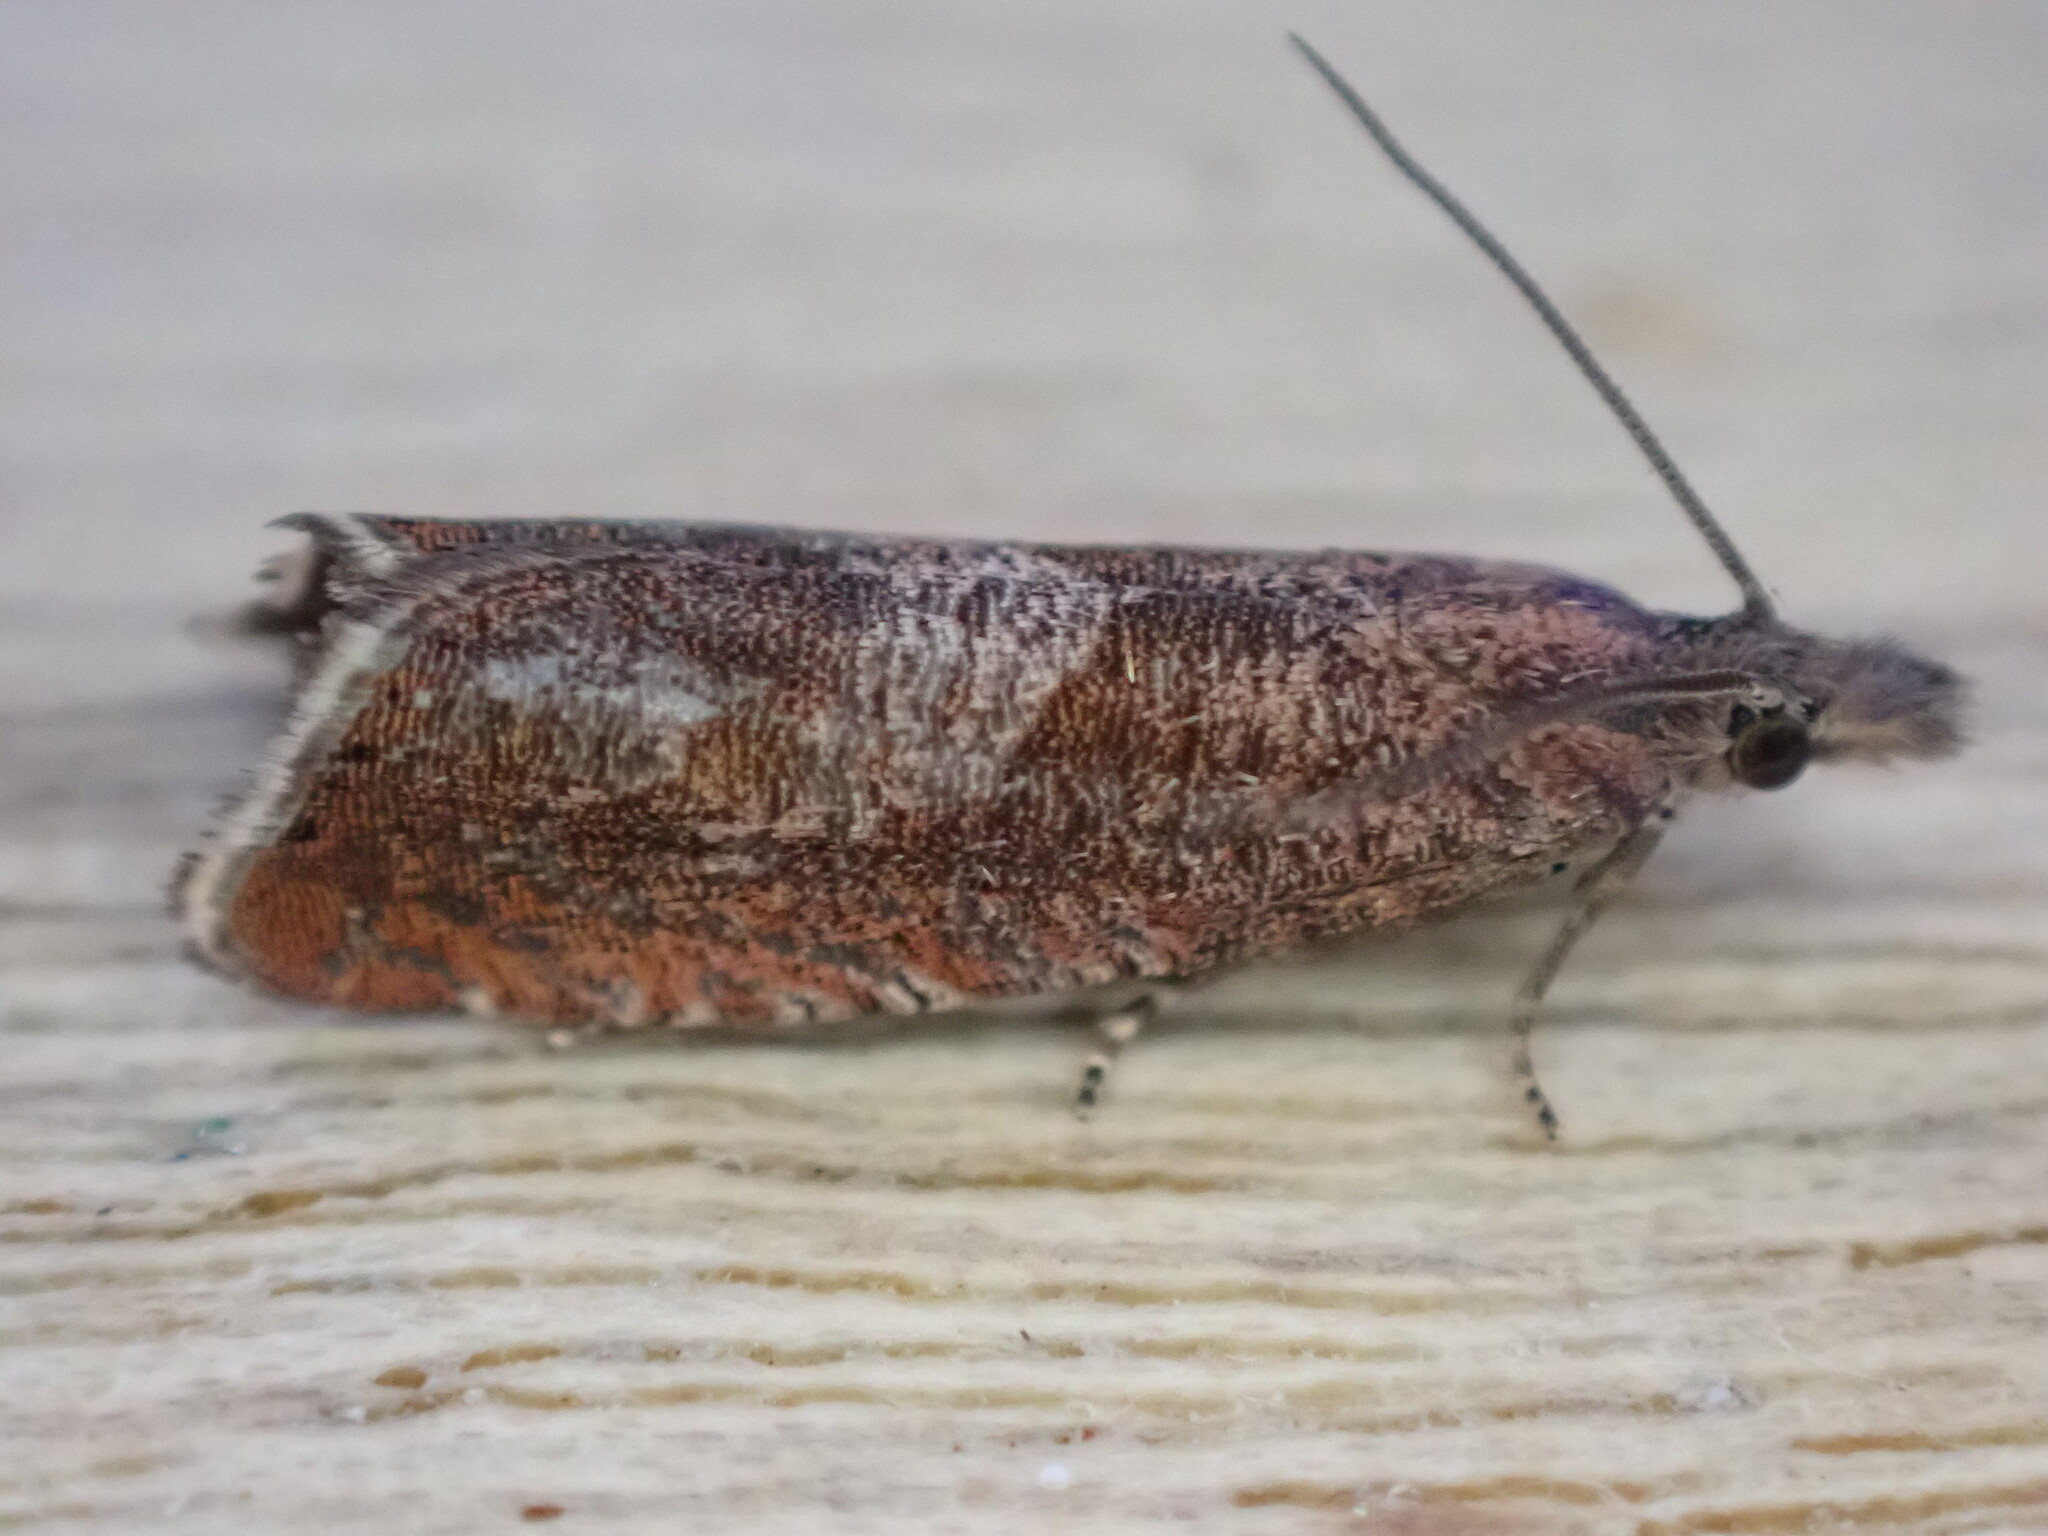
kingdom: Animalia
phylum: Arthropoda
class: Insecta
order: Lepidoptera
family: Tortricidae
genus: Dichrorampha
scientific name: Dichrorampha acuminatana
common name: Sharp-winged drill
